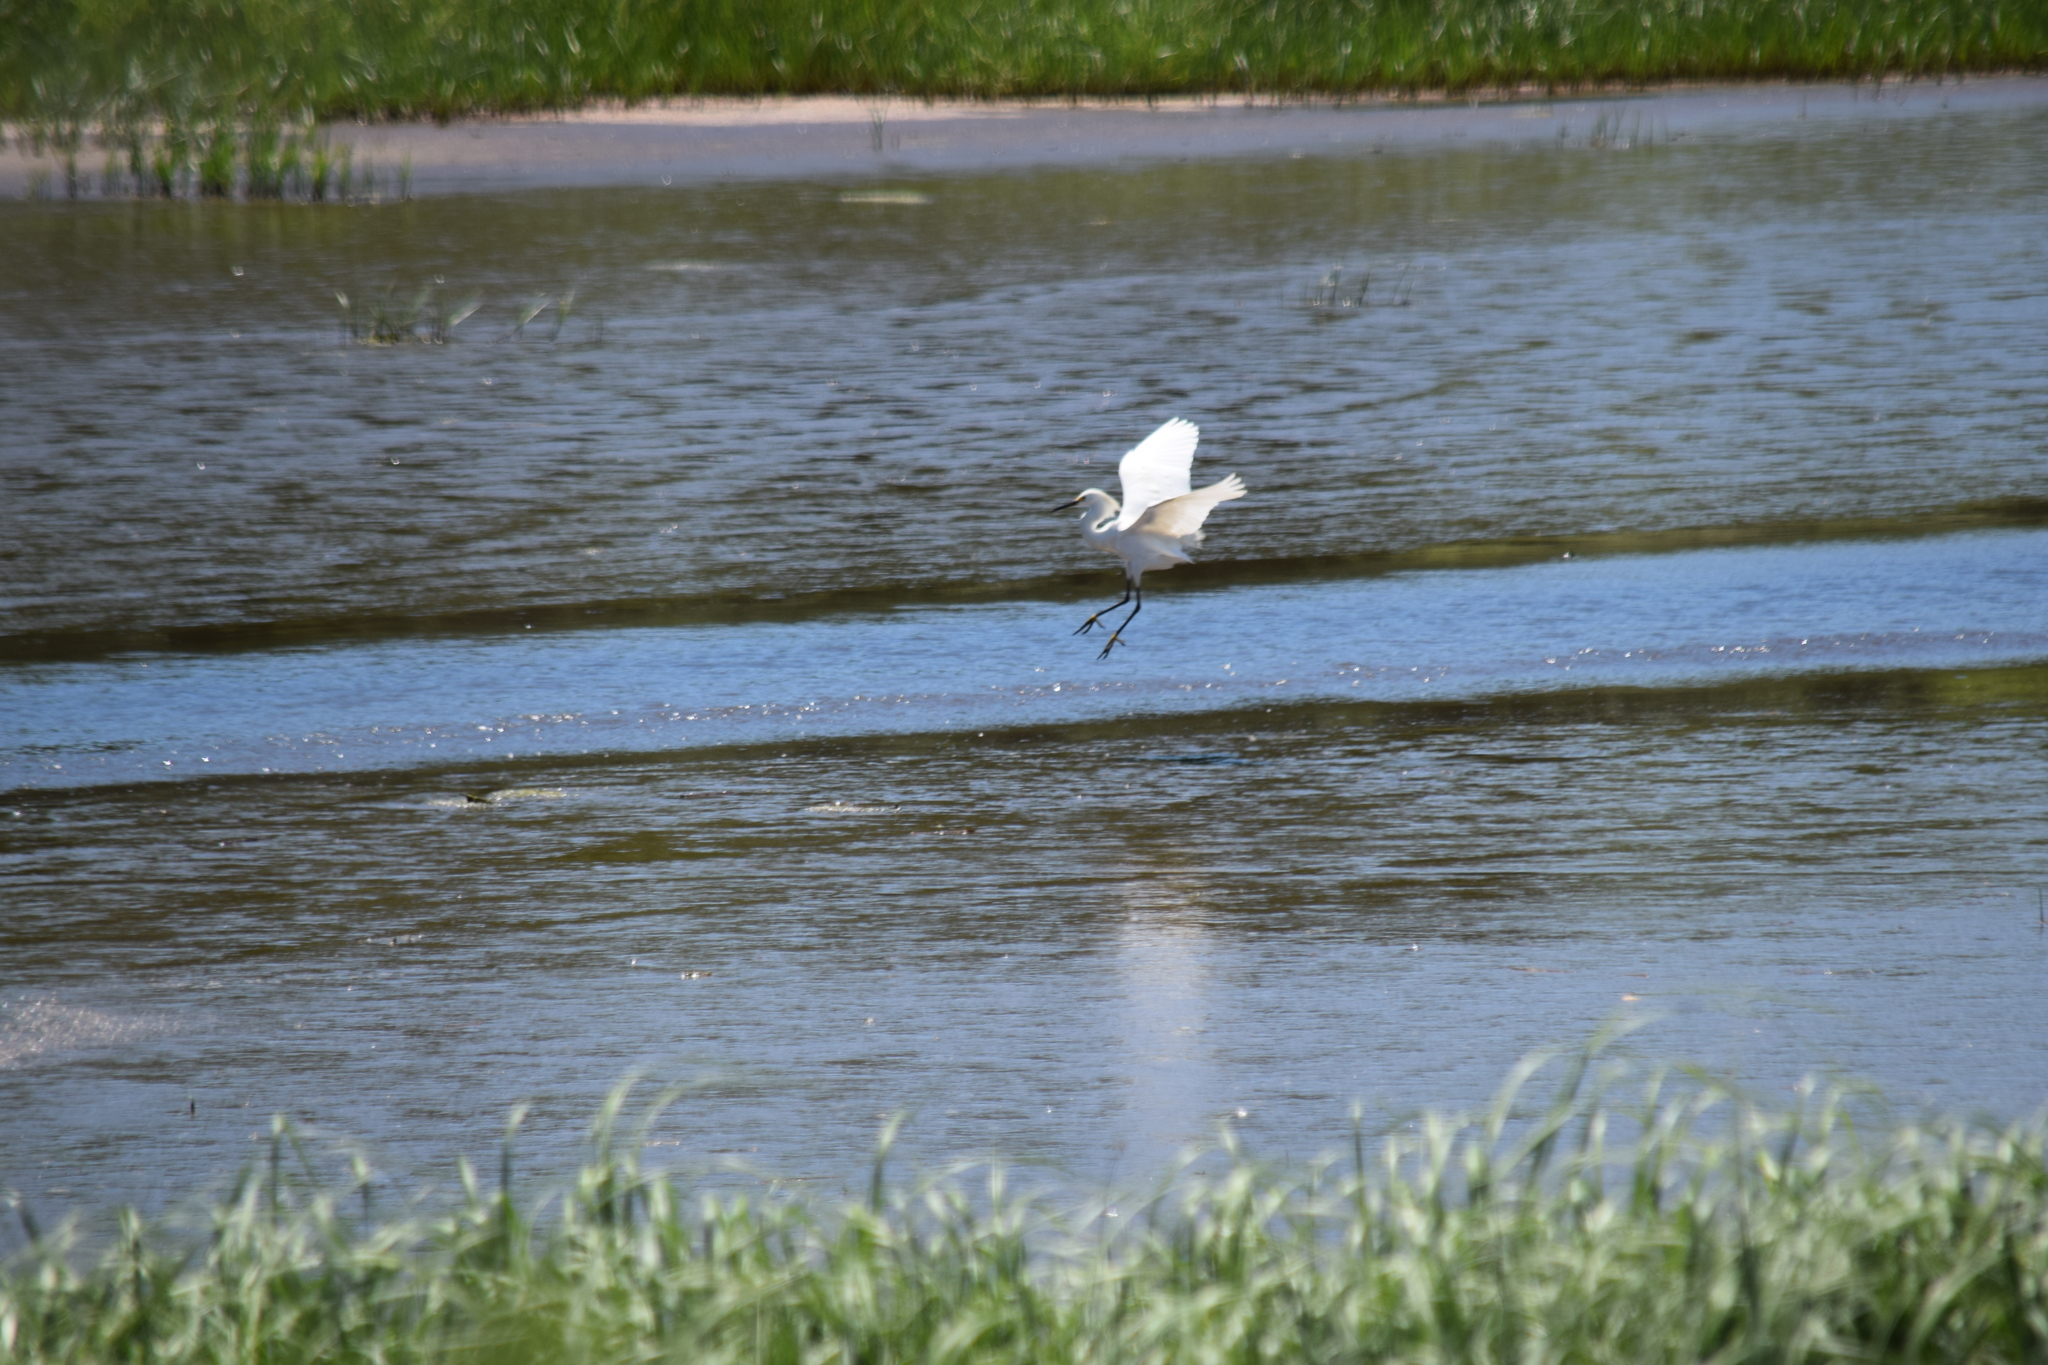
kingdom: Animalia
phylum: Chordata
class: Aves
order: Pelecaniformes
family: Ardeidae
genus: Egretta
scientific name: Egretta thula
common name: Snowy egret
